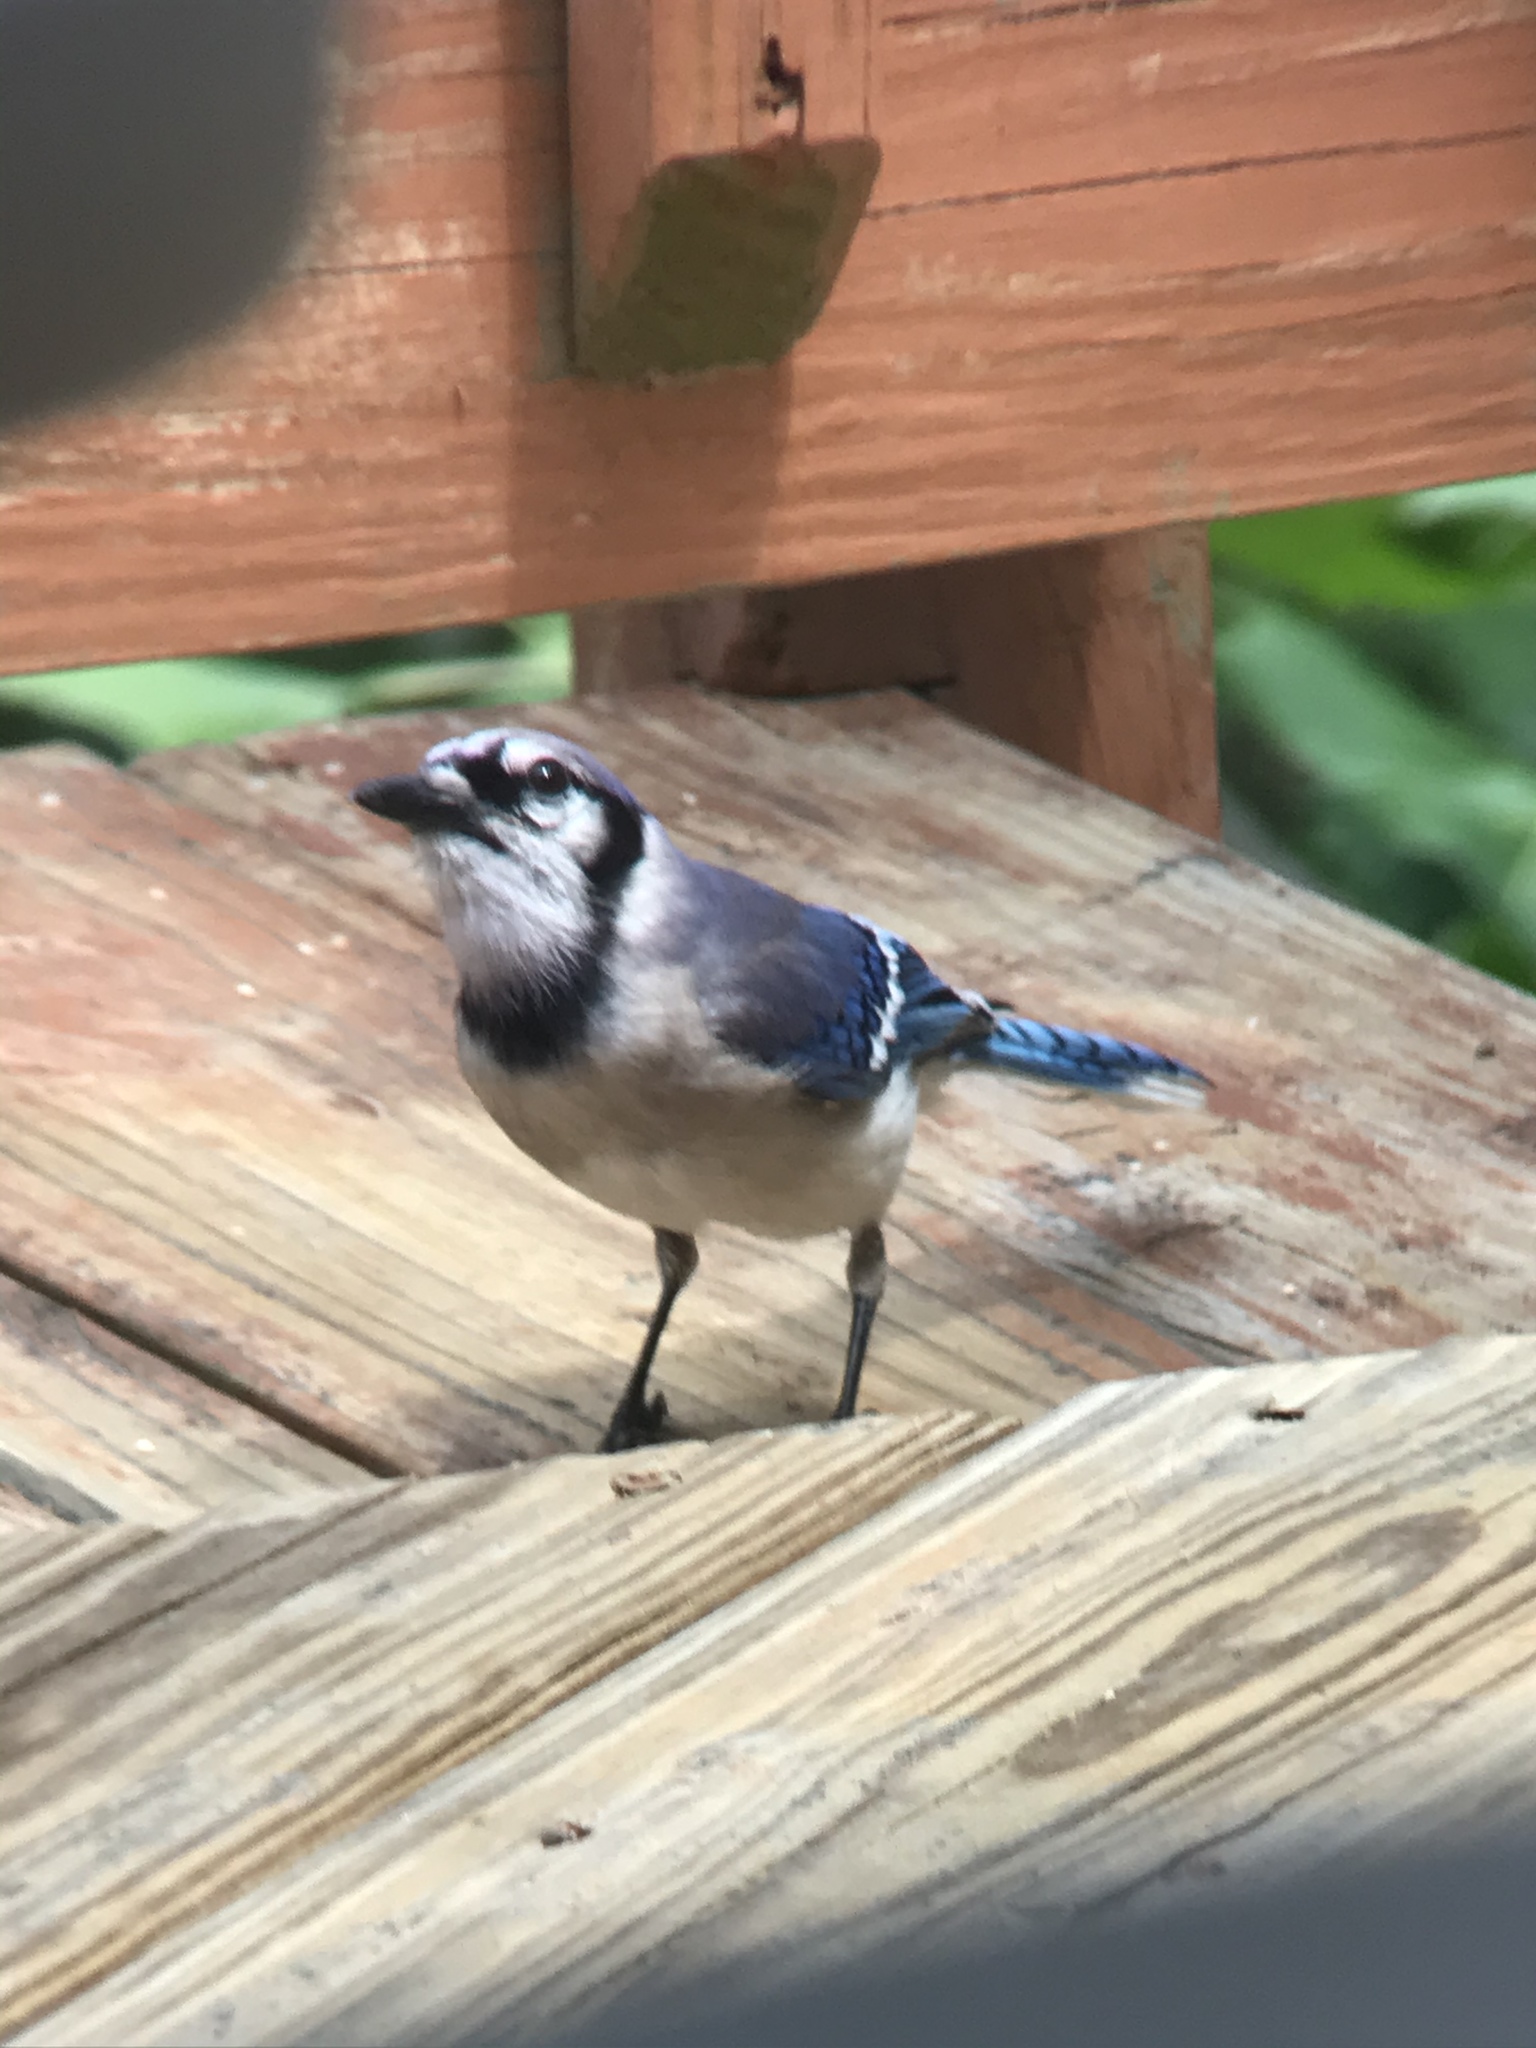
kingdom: Animalia
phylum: Chordata
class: Aves
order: Passeriformes
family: Corvidae
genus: Cyanocitta
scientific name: Cyanocitta cristata
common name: Blue jay
